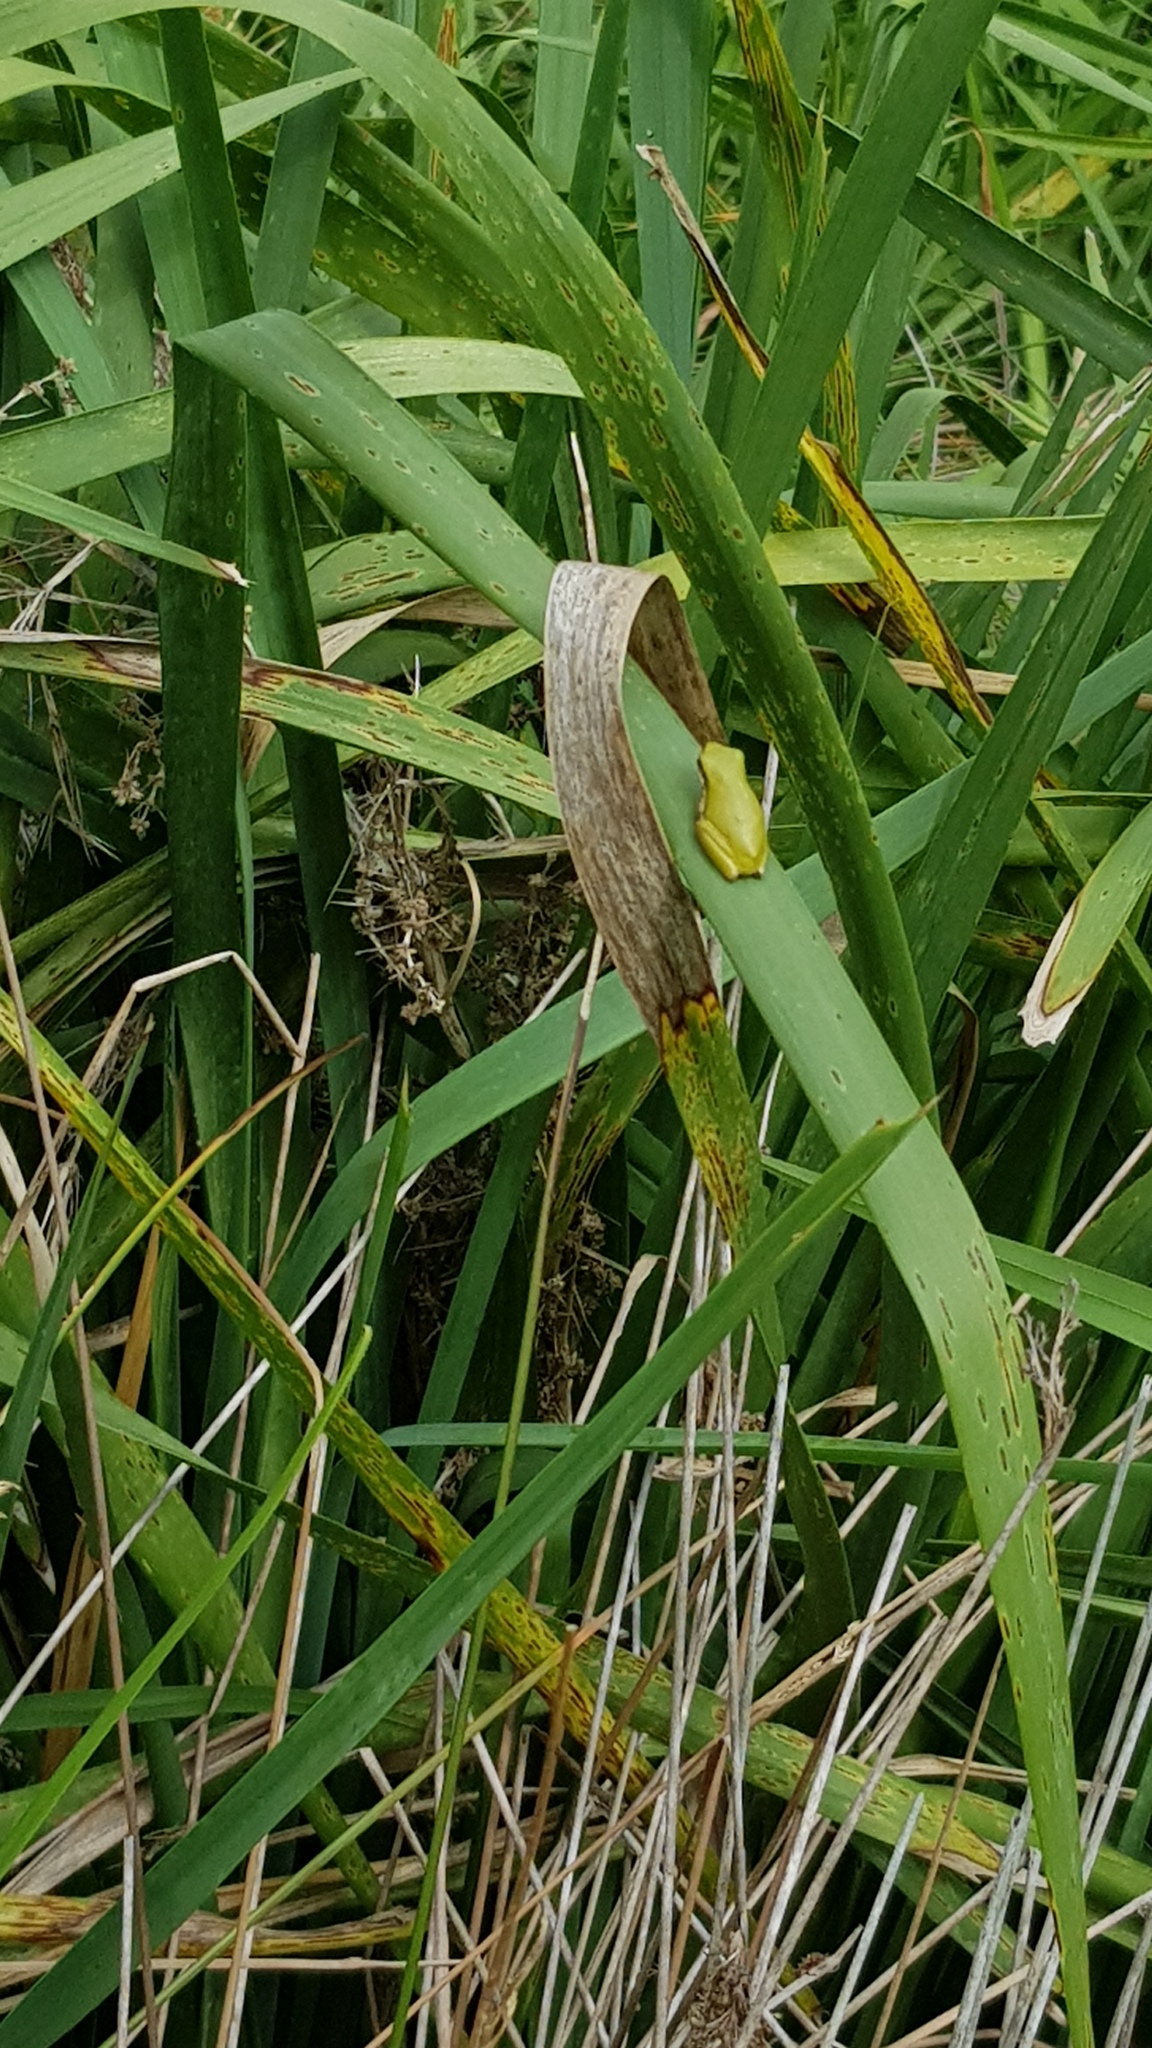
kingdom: Animalia
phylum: Chordata
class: Amphibia
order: Anura
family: Pelodryadidae
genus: Litoria
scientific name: Litoria fallax
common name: Eastern dwarf treefrog
